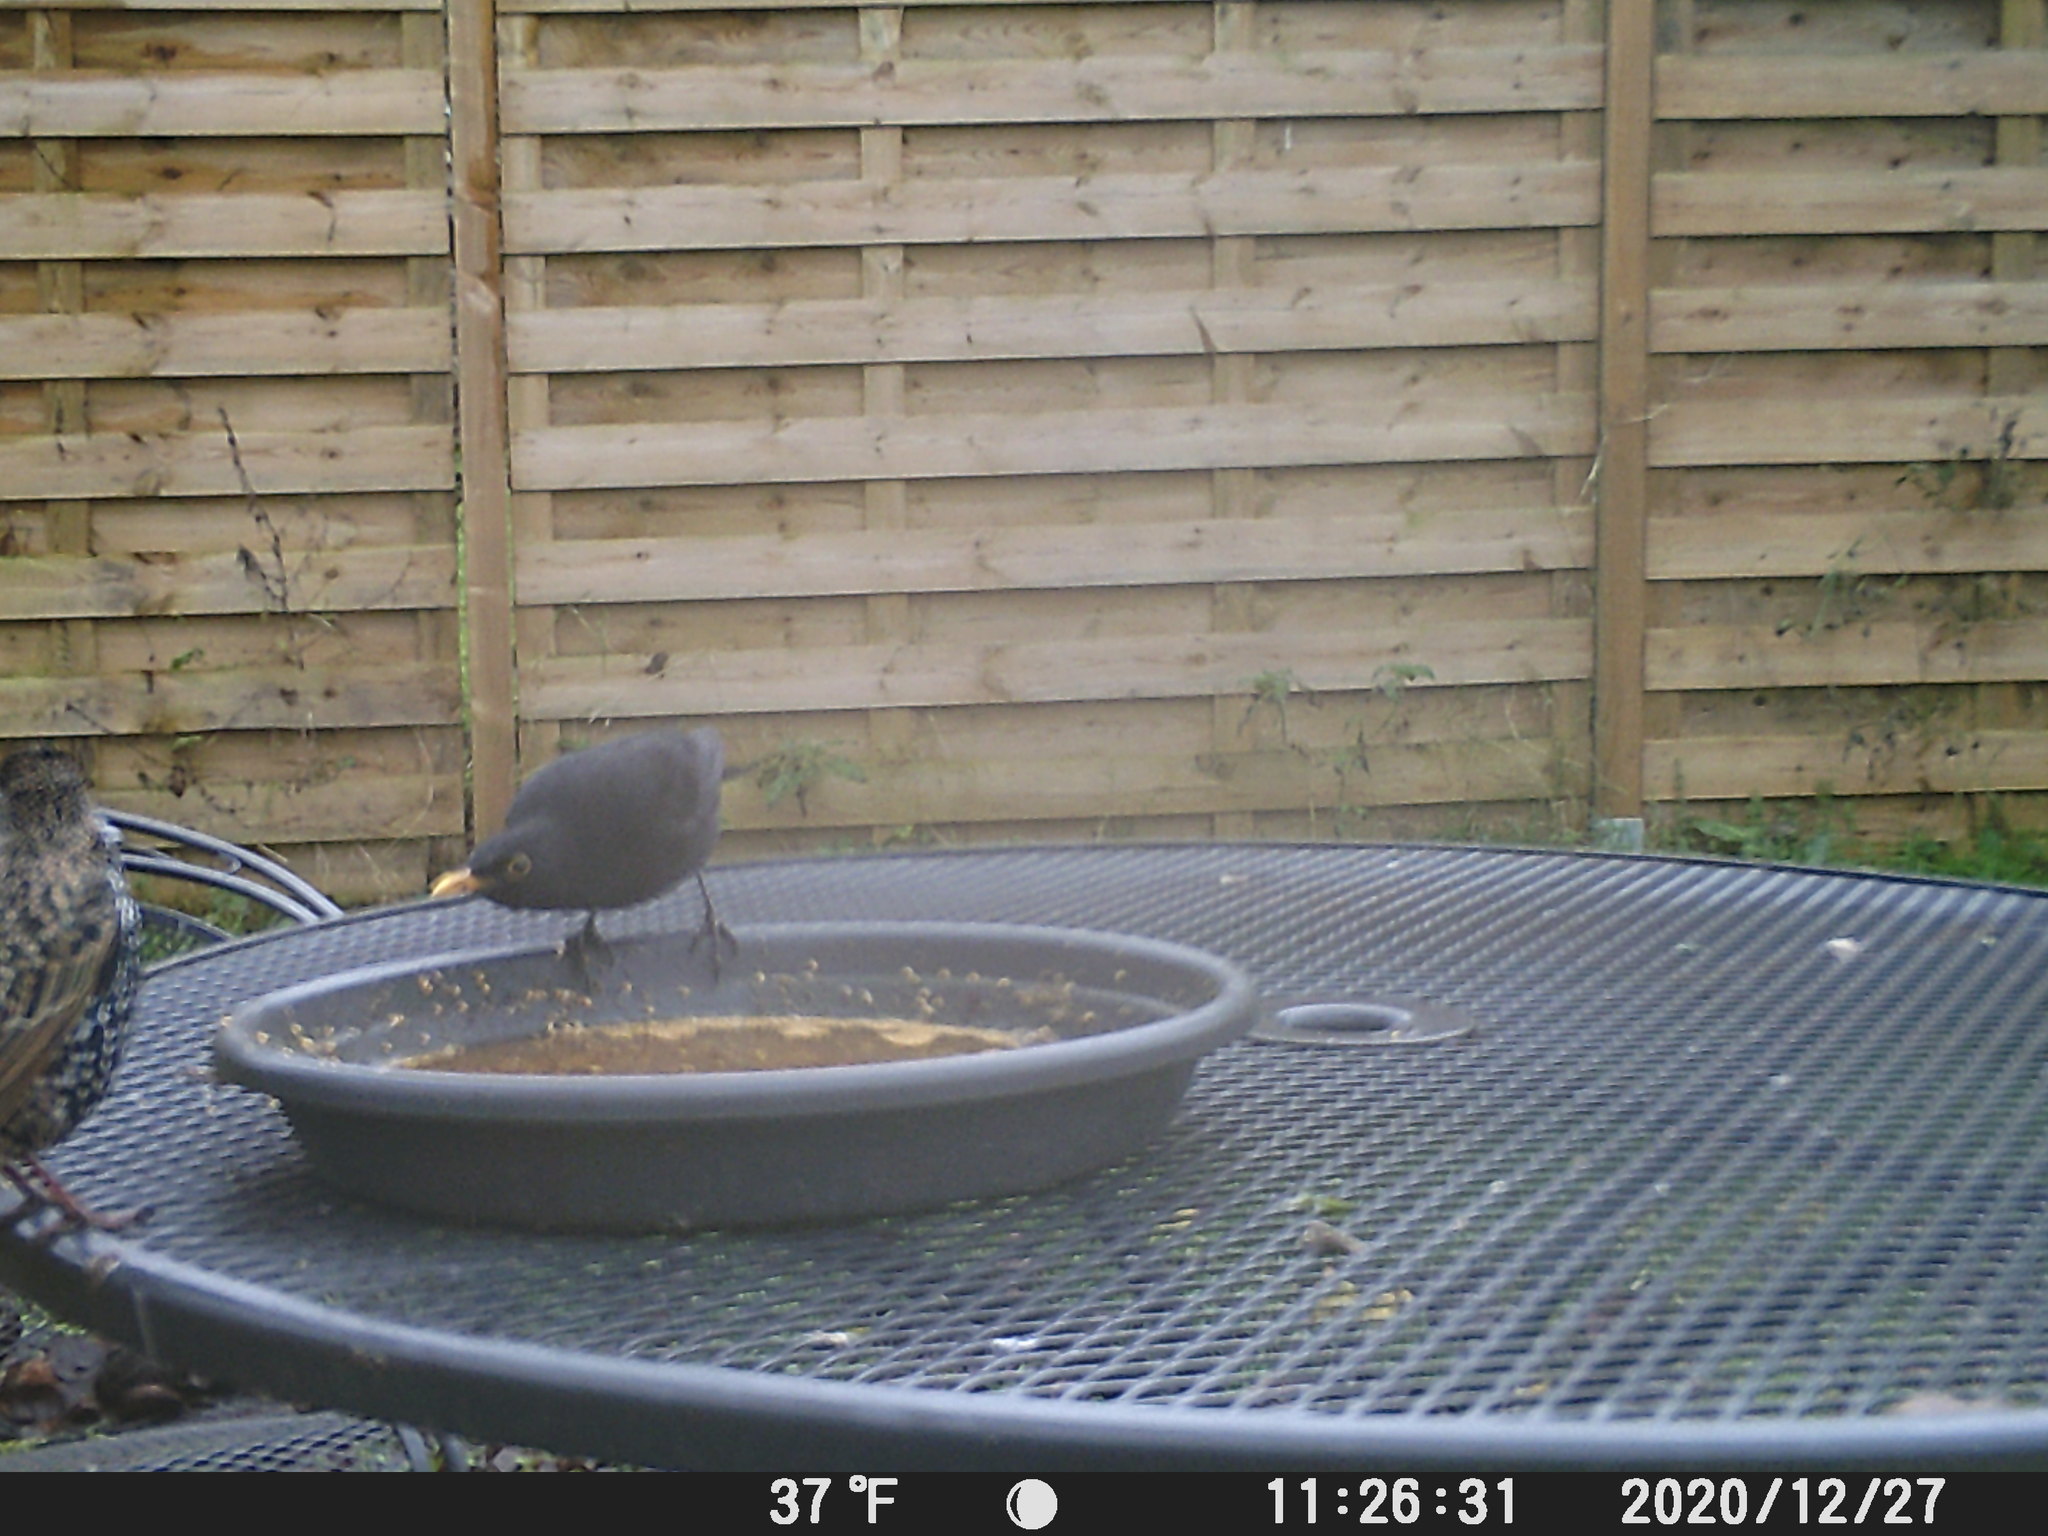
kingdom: Animalia
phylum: Chordata
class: Aves
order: Passeriformes
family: Turdidae
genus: Turdus
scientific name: Turdus merula
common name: Common blackbird
